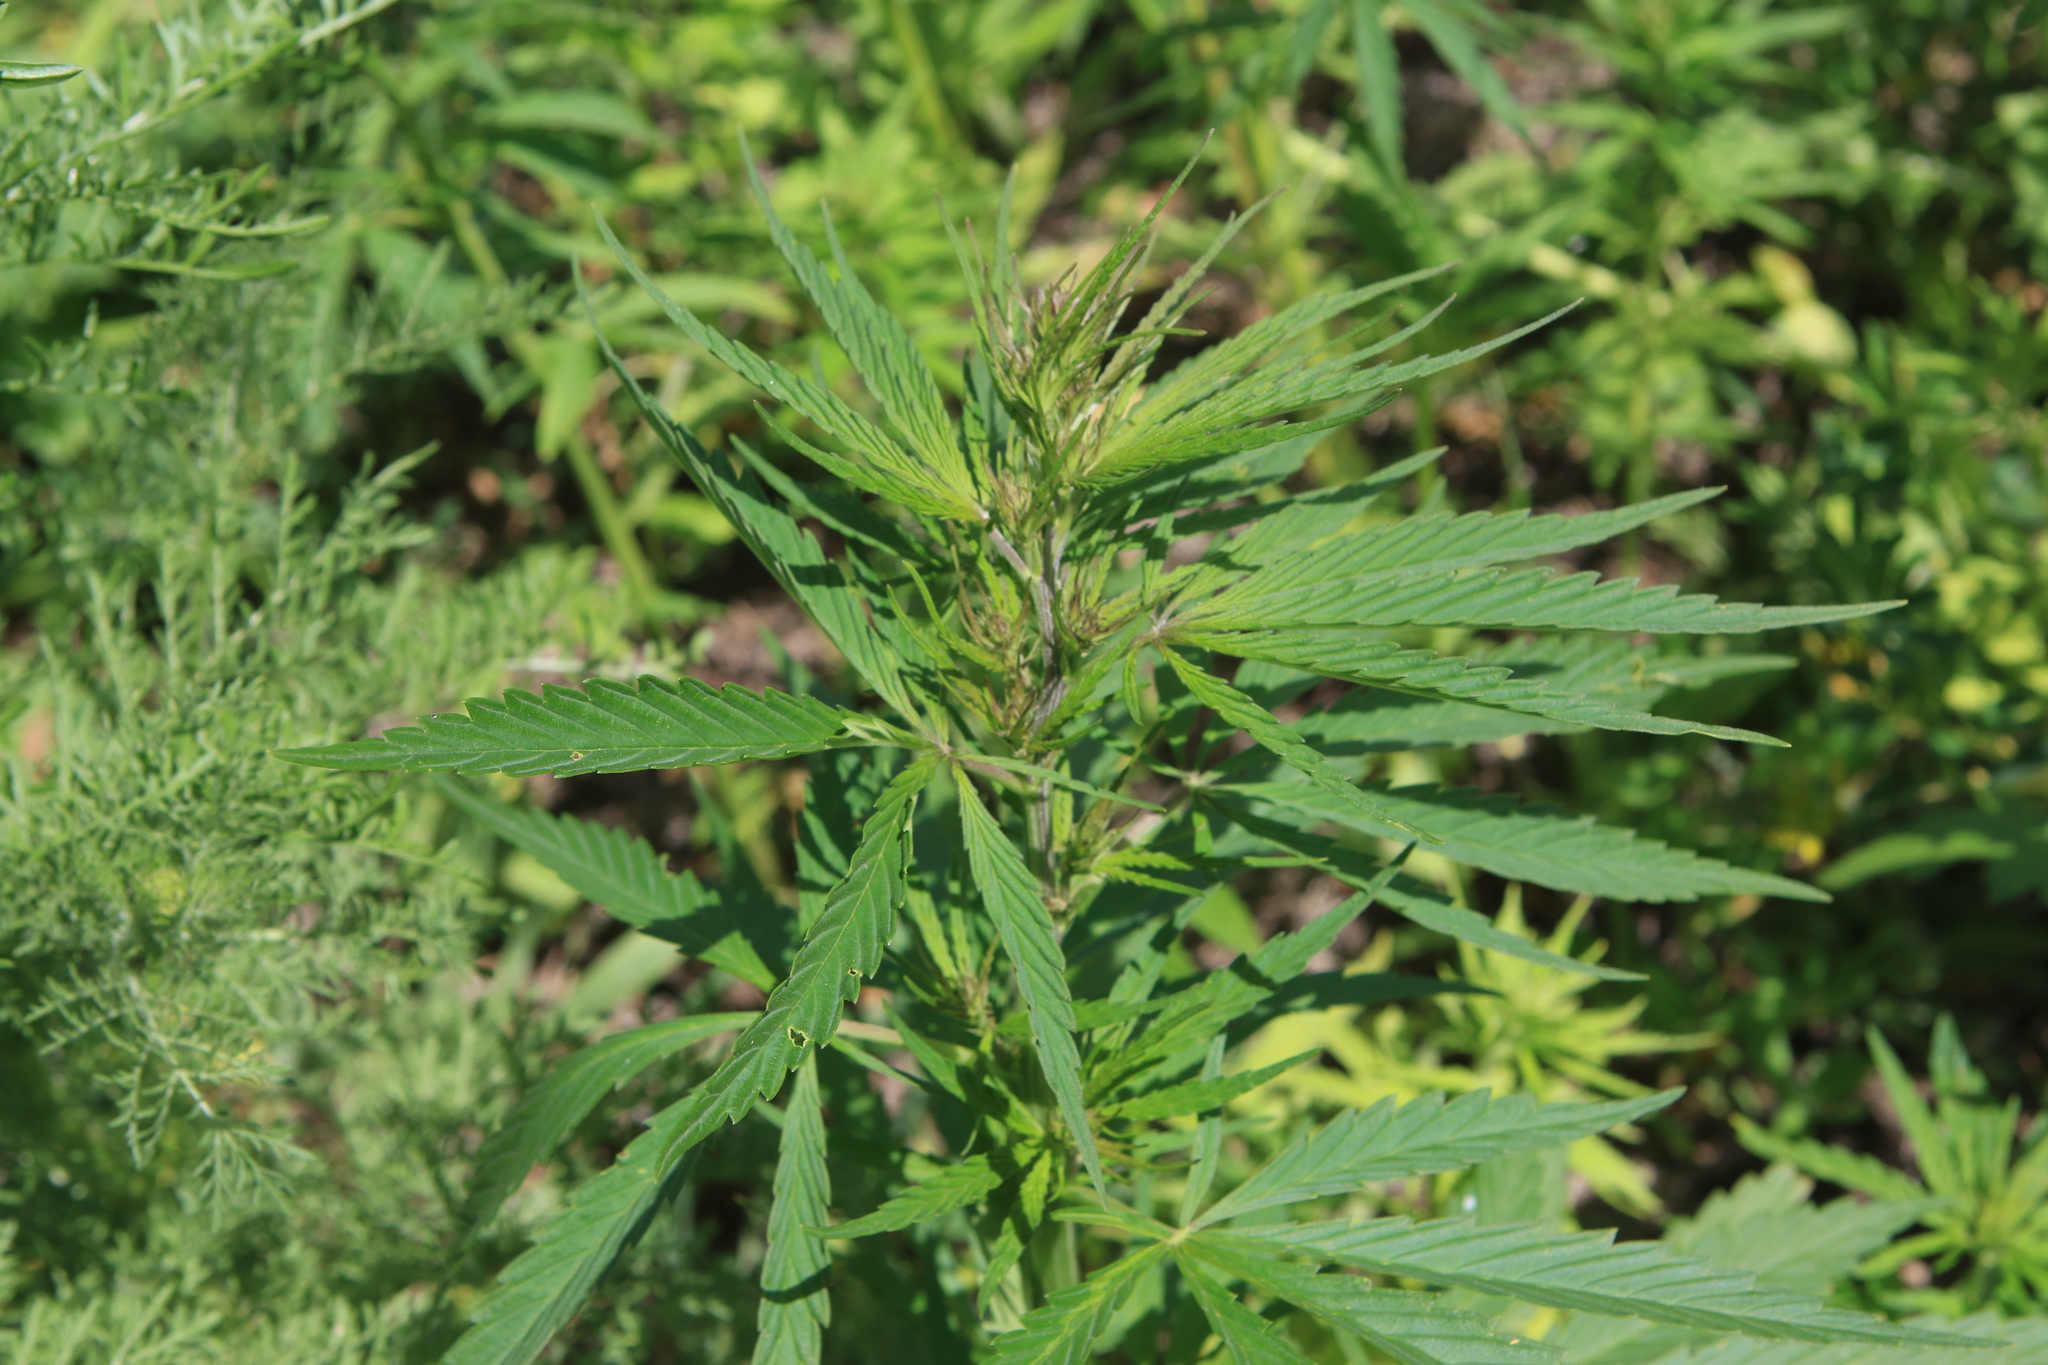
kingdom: Plantae
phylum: Tracheophyta
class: Magnoliopsida
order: Rosales
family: Cannabaceae
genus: Cannabis
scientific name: Cannabis sativa
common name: Hemp
